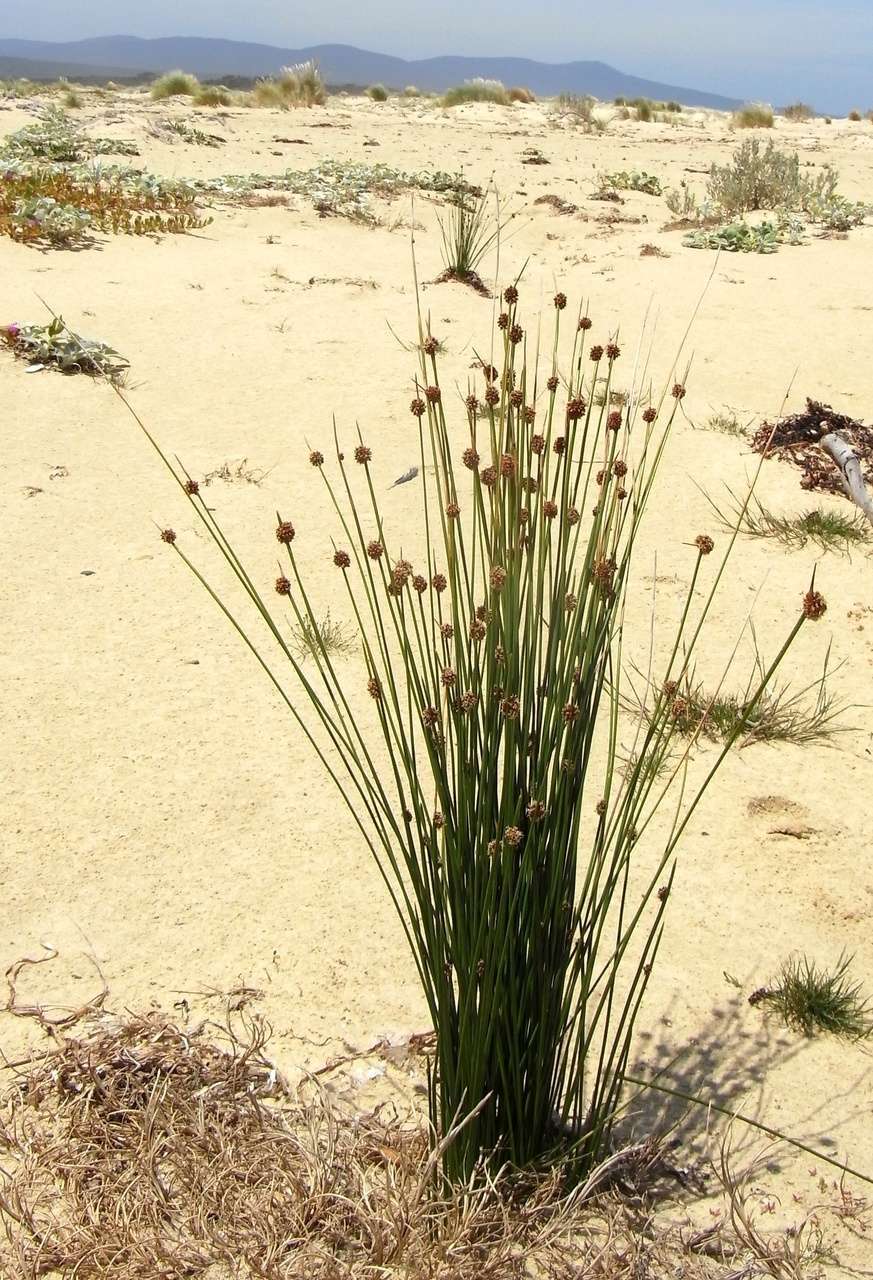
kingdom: Plantae
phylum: Tracheophyta
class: Liliopsida
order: Poales
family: Cyperaceae
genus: Ficinia
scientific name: Ficinia nodosa
